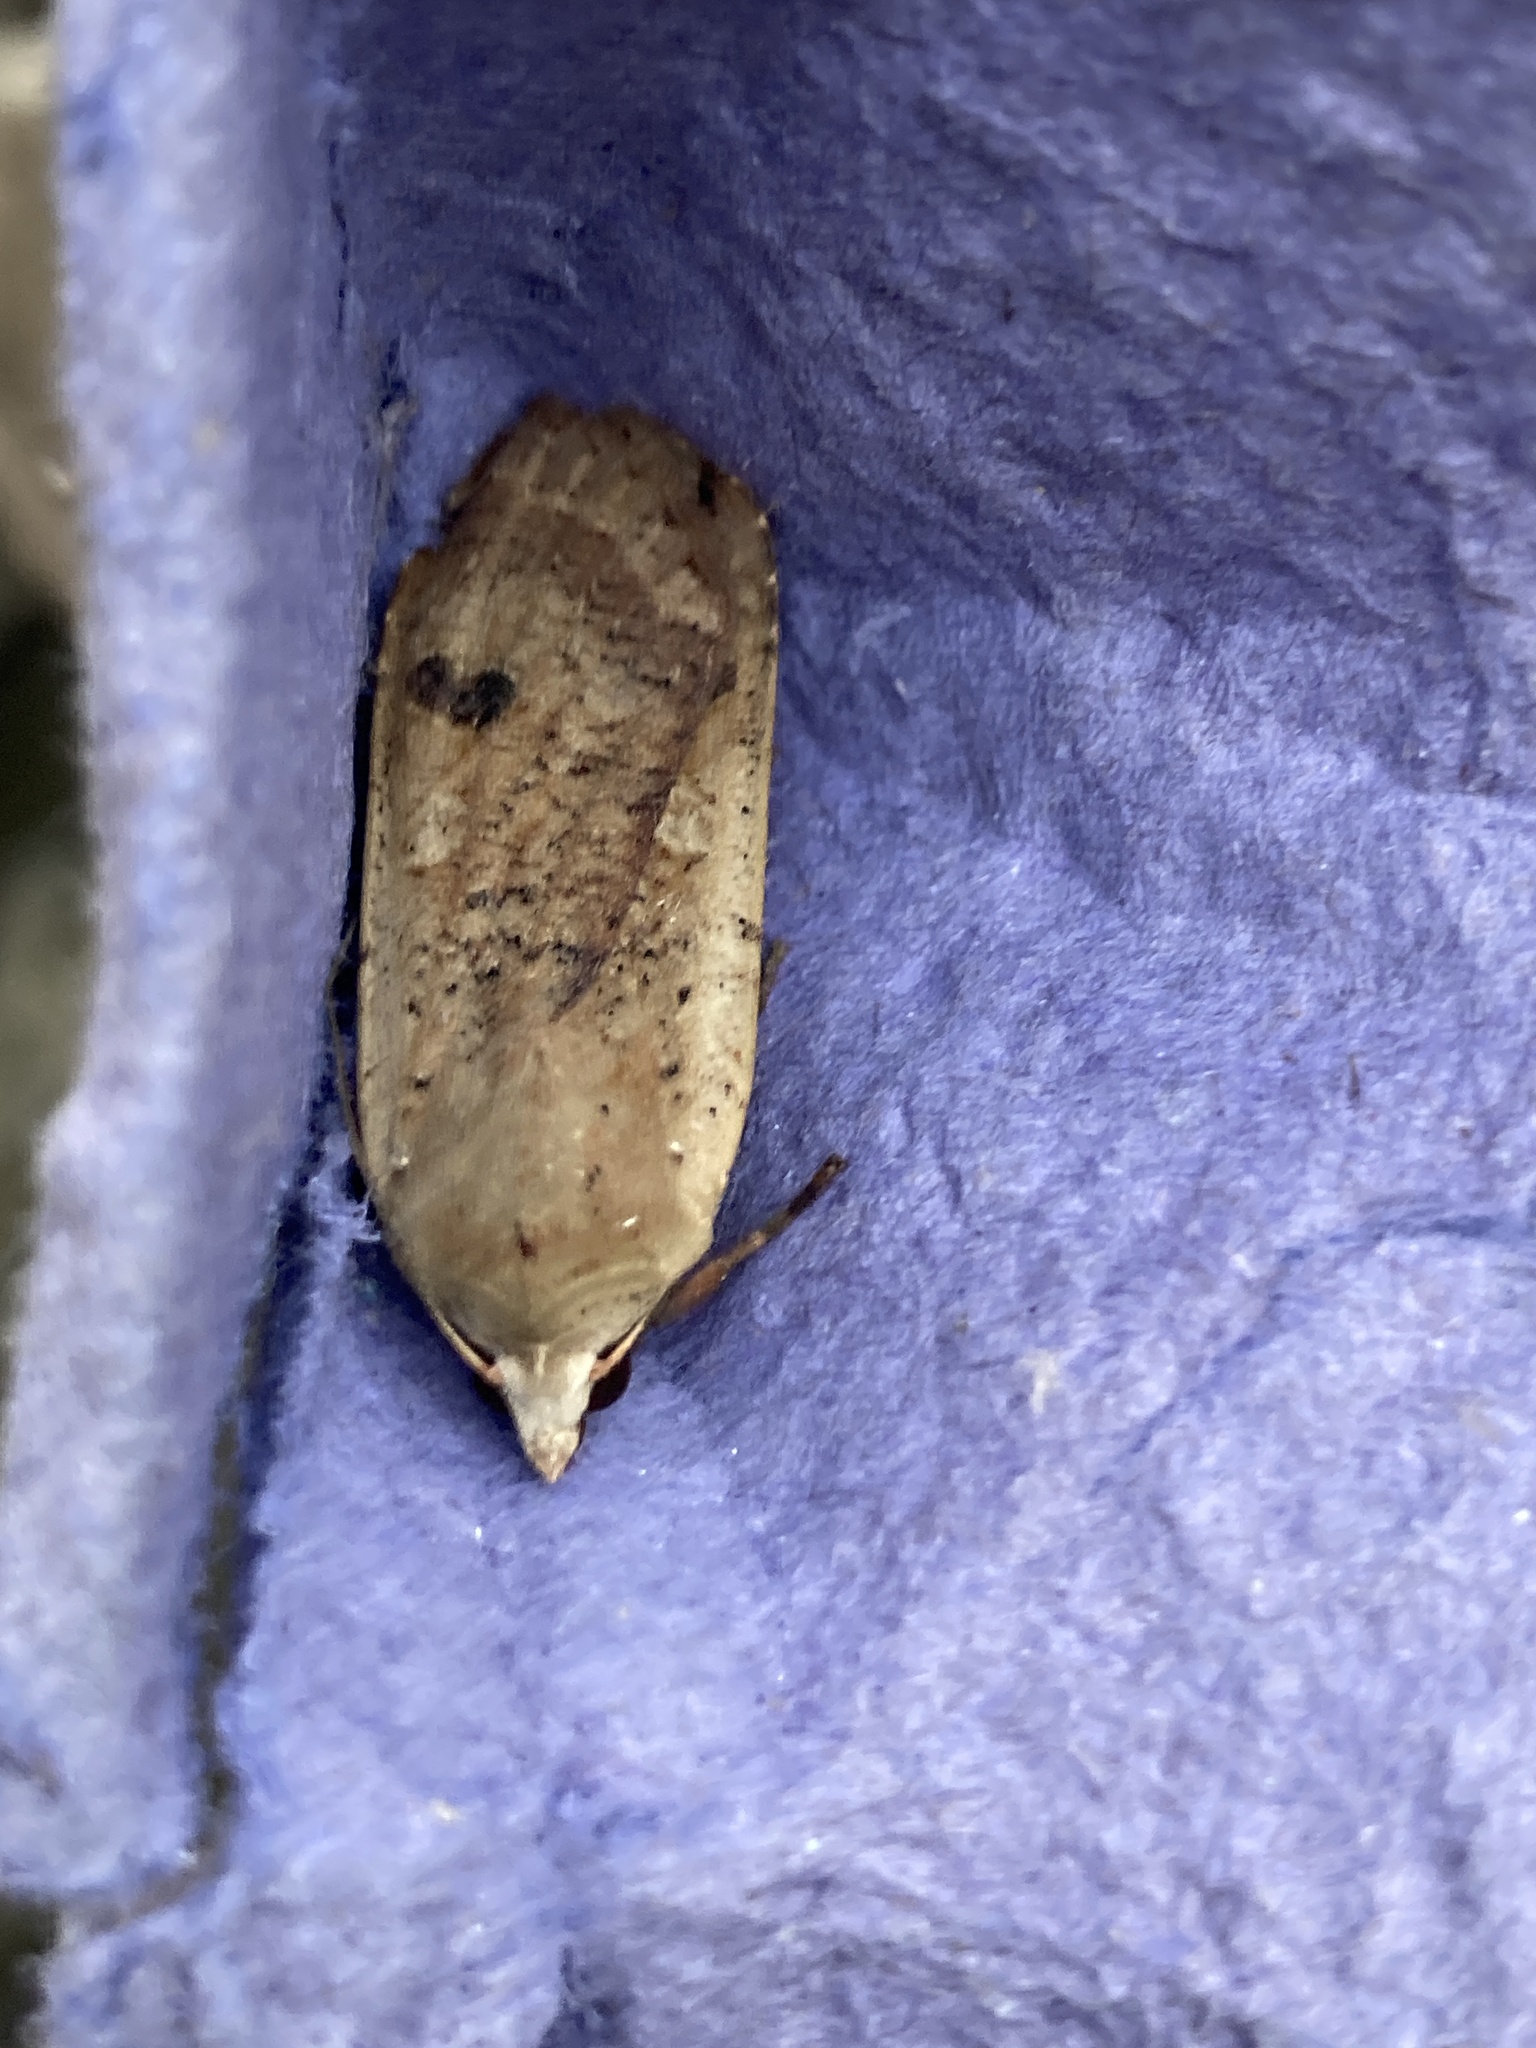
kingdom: Animalia
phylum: Arthropoda
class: Insecta
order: Lepidoptera
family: Noctuidae
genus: Noctua
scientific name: Noctua pronuba
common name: Large yellow underwing
